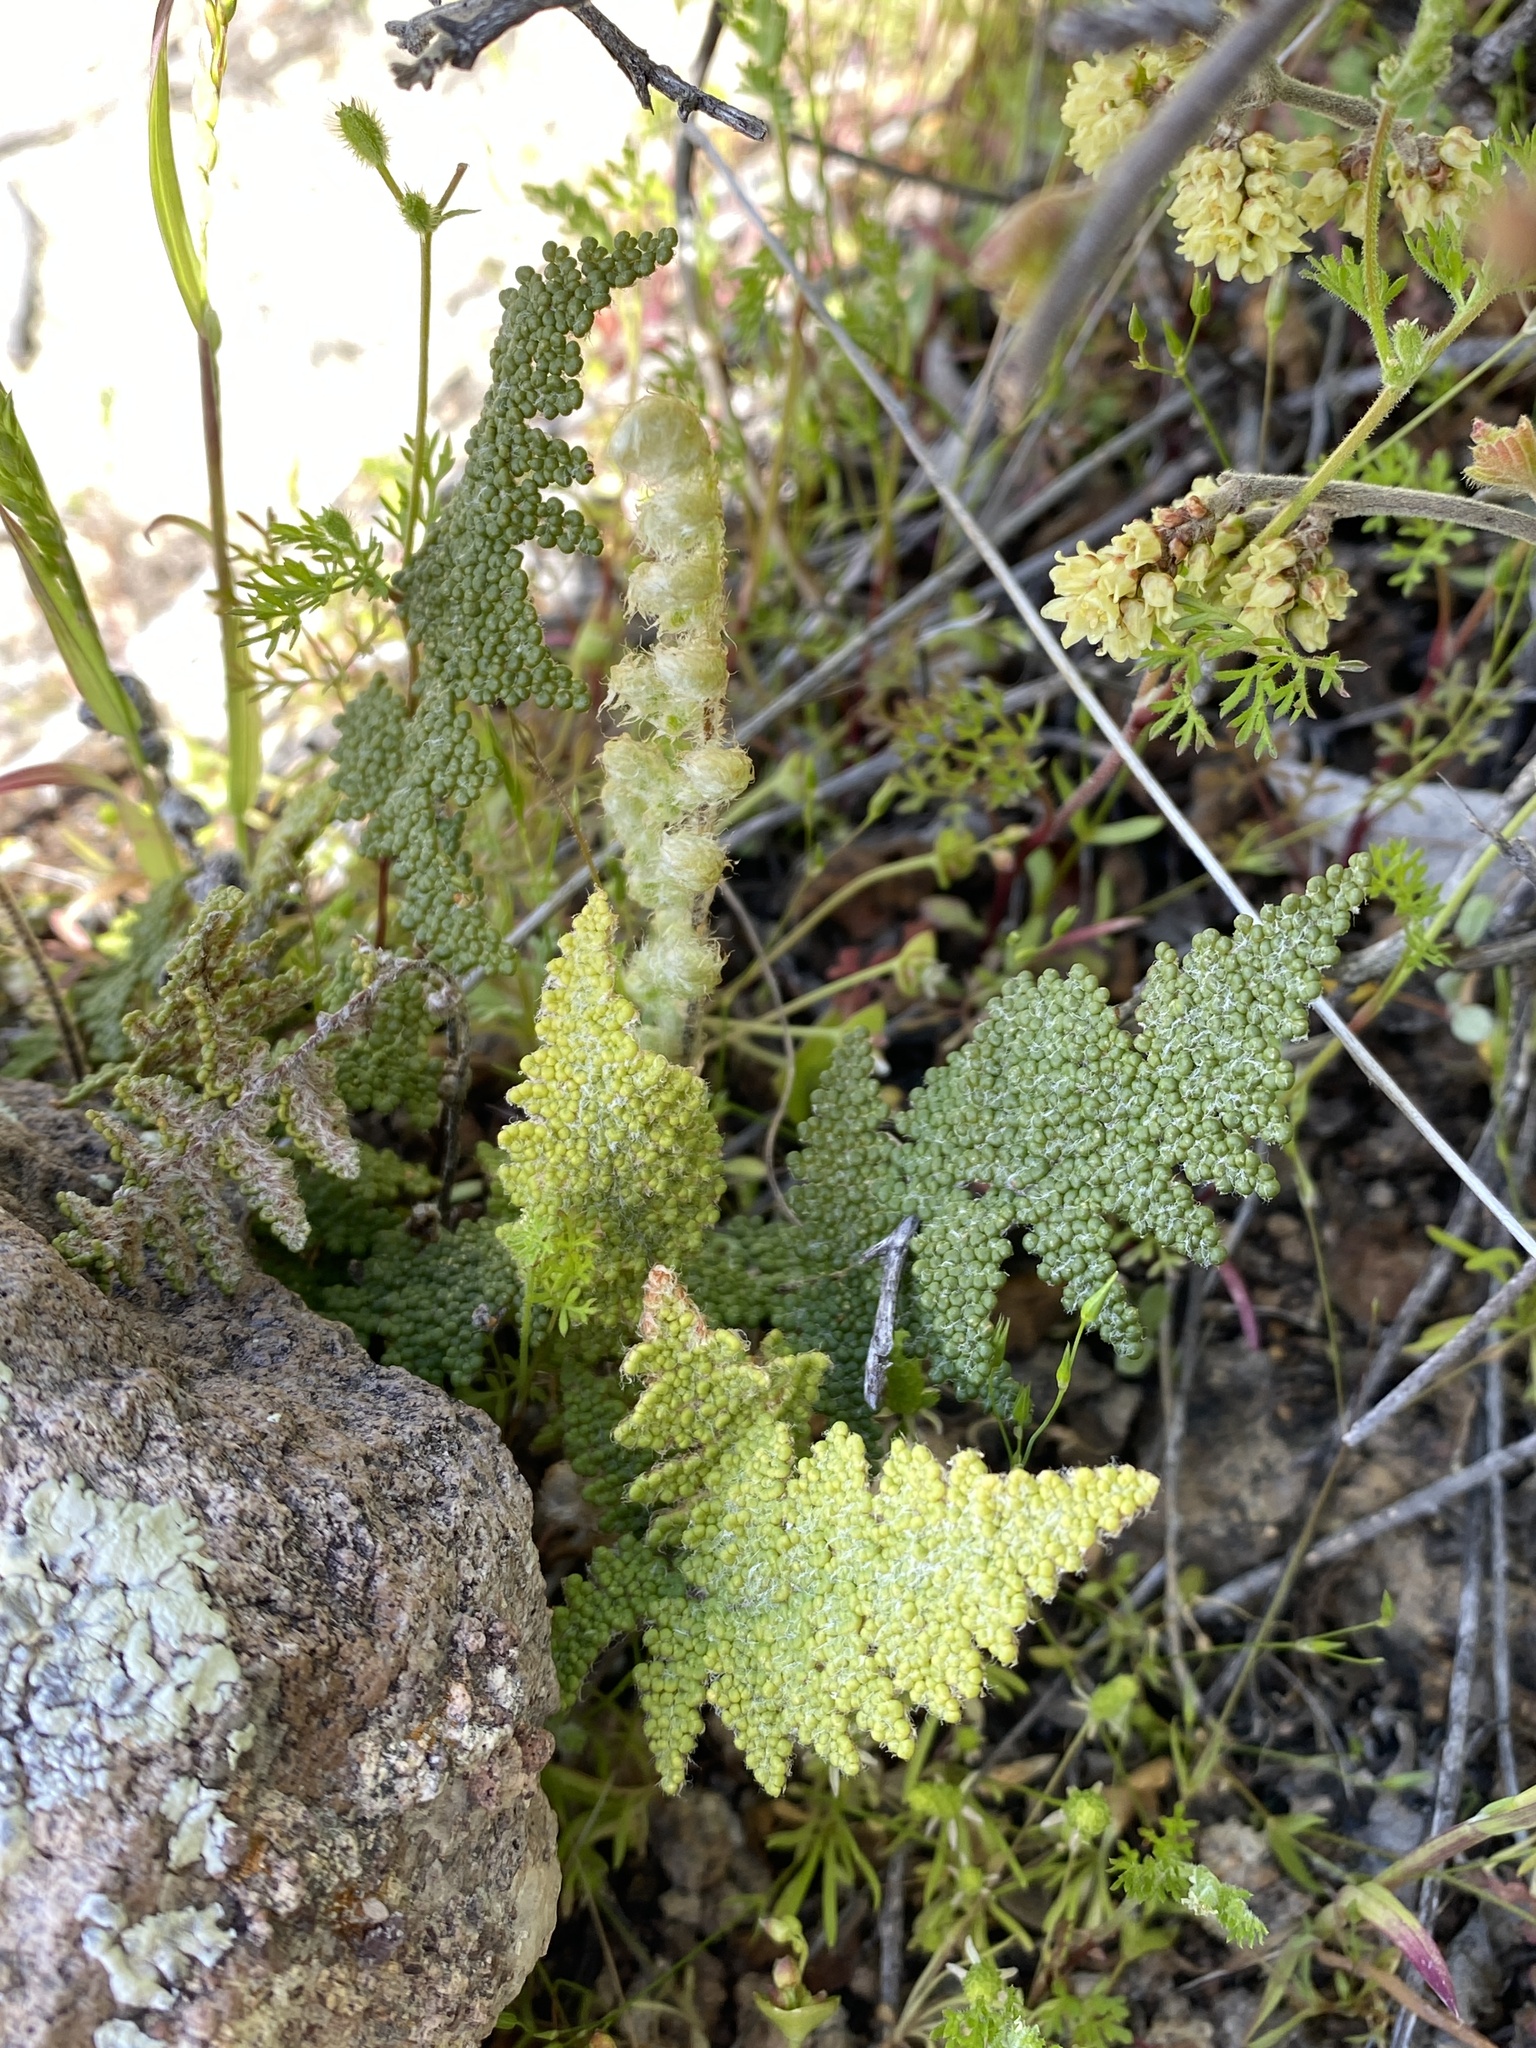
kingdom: Plantae
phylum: Tracheophyta
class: Polypodiopsida
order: Polypodiales
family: Pteridaceae
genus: Myriopteris
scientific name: Myriopteris covillei
